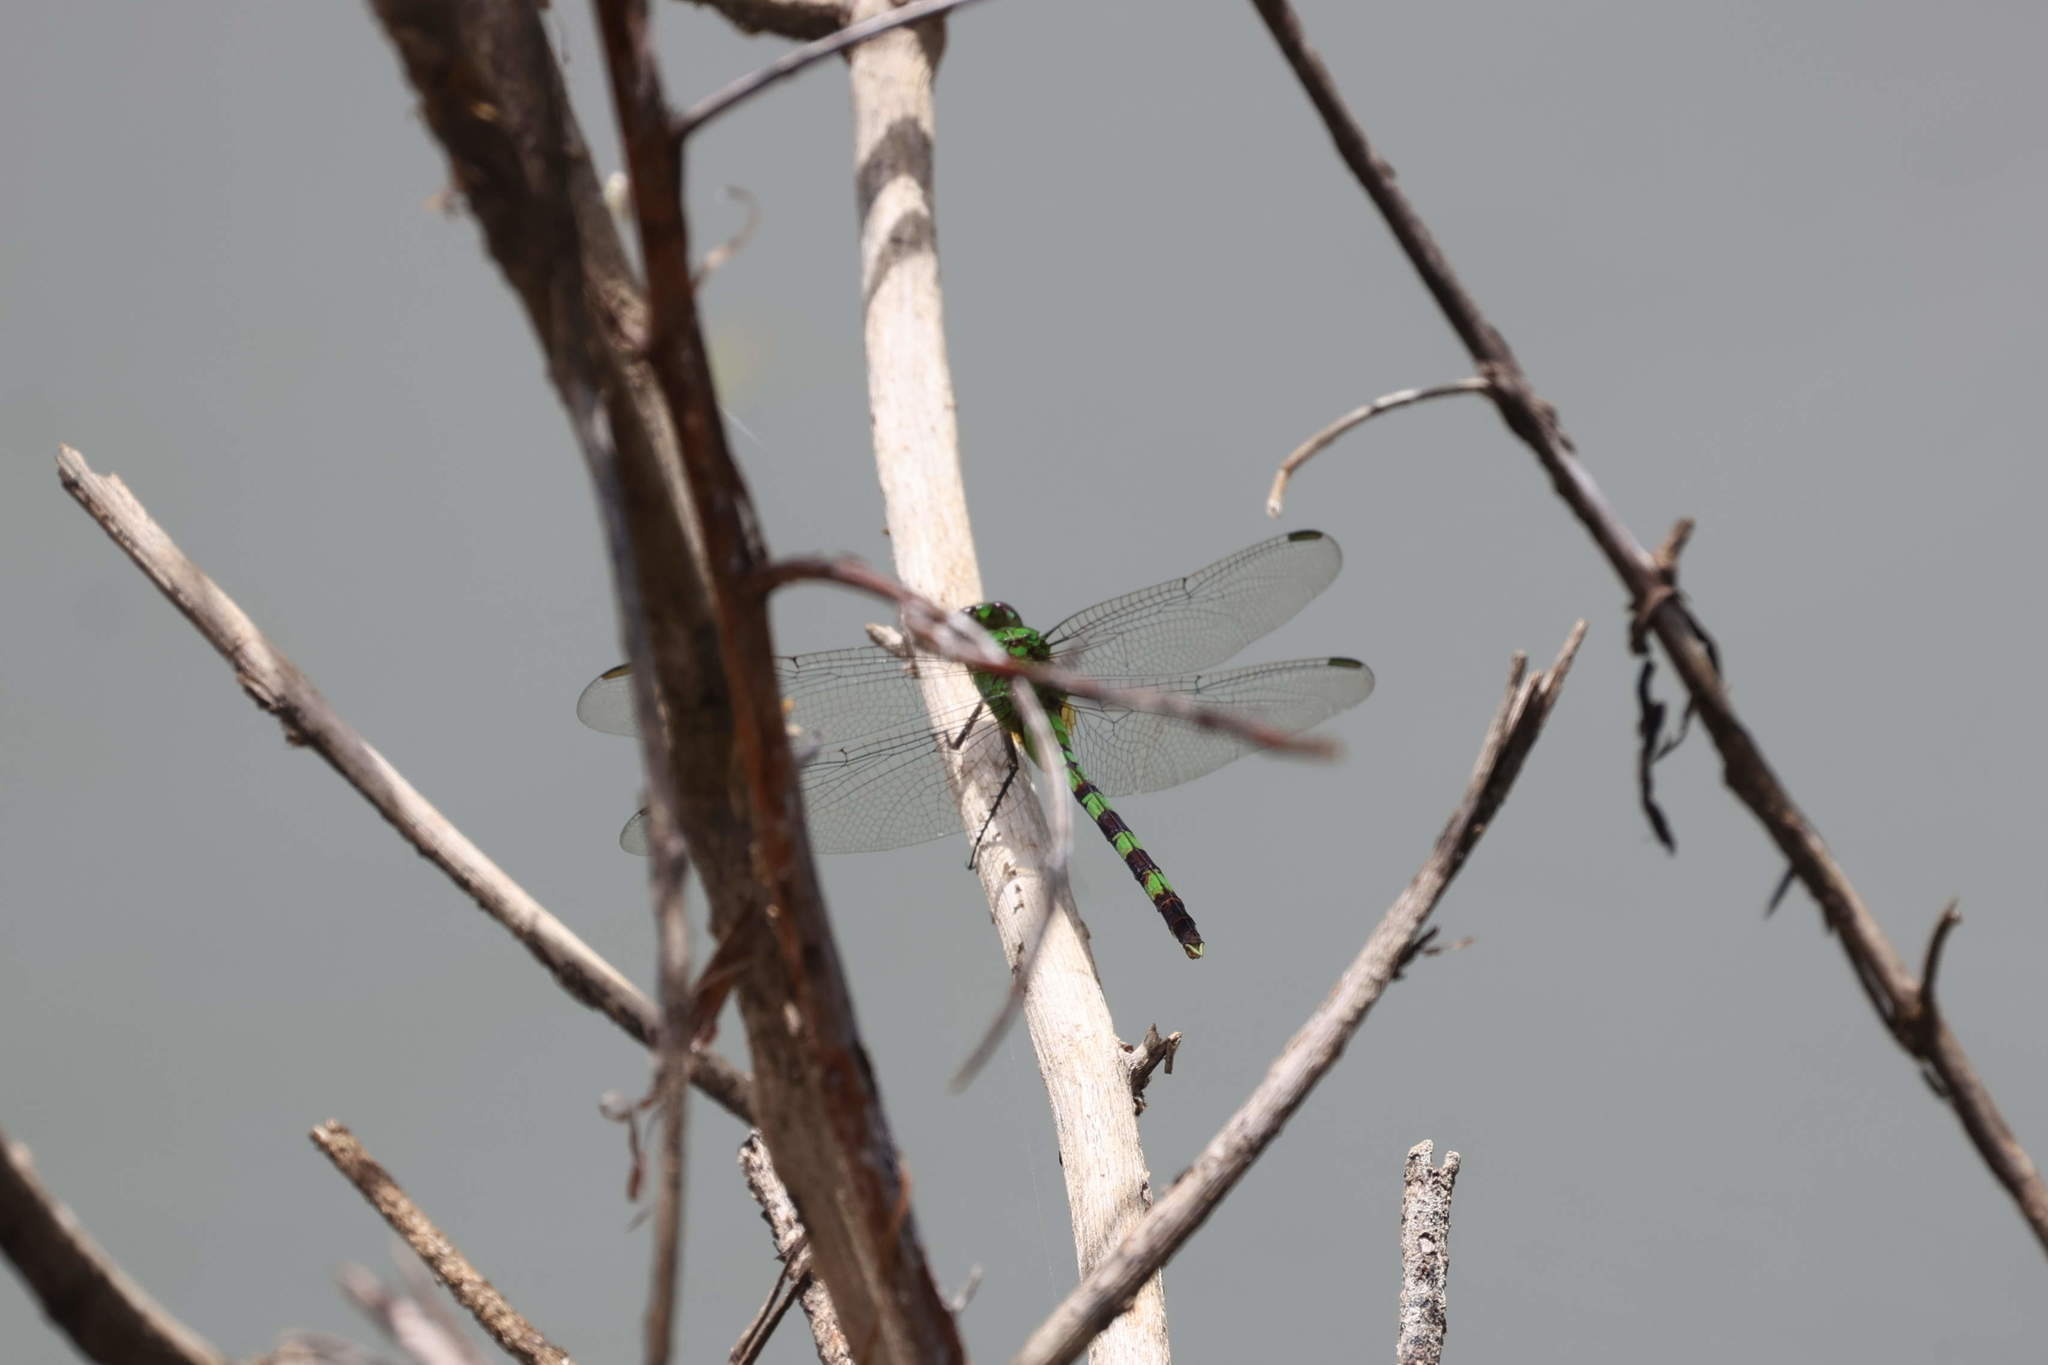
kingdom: Animalia
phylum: Arthropoda
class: Insecta
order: Odonata
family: Libellulidae
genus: Erythemis
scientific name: Erythemis vesiculosa
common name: Great pondhawk
